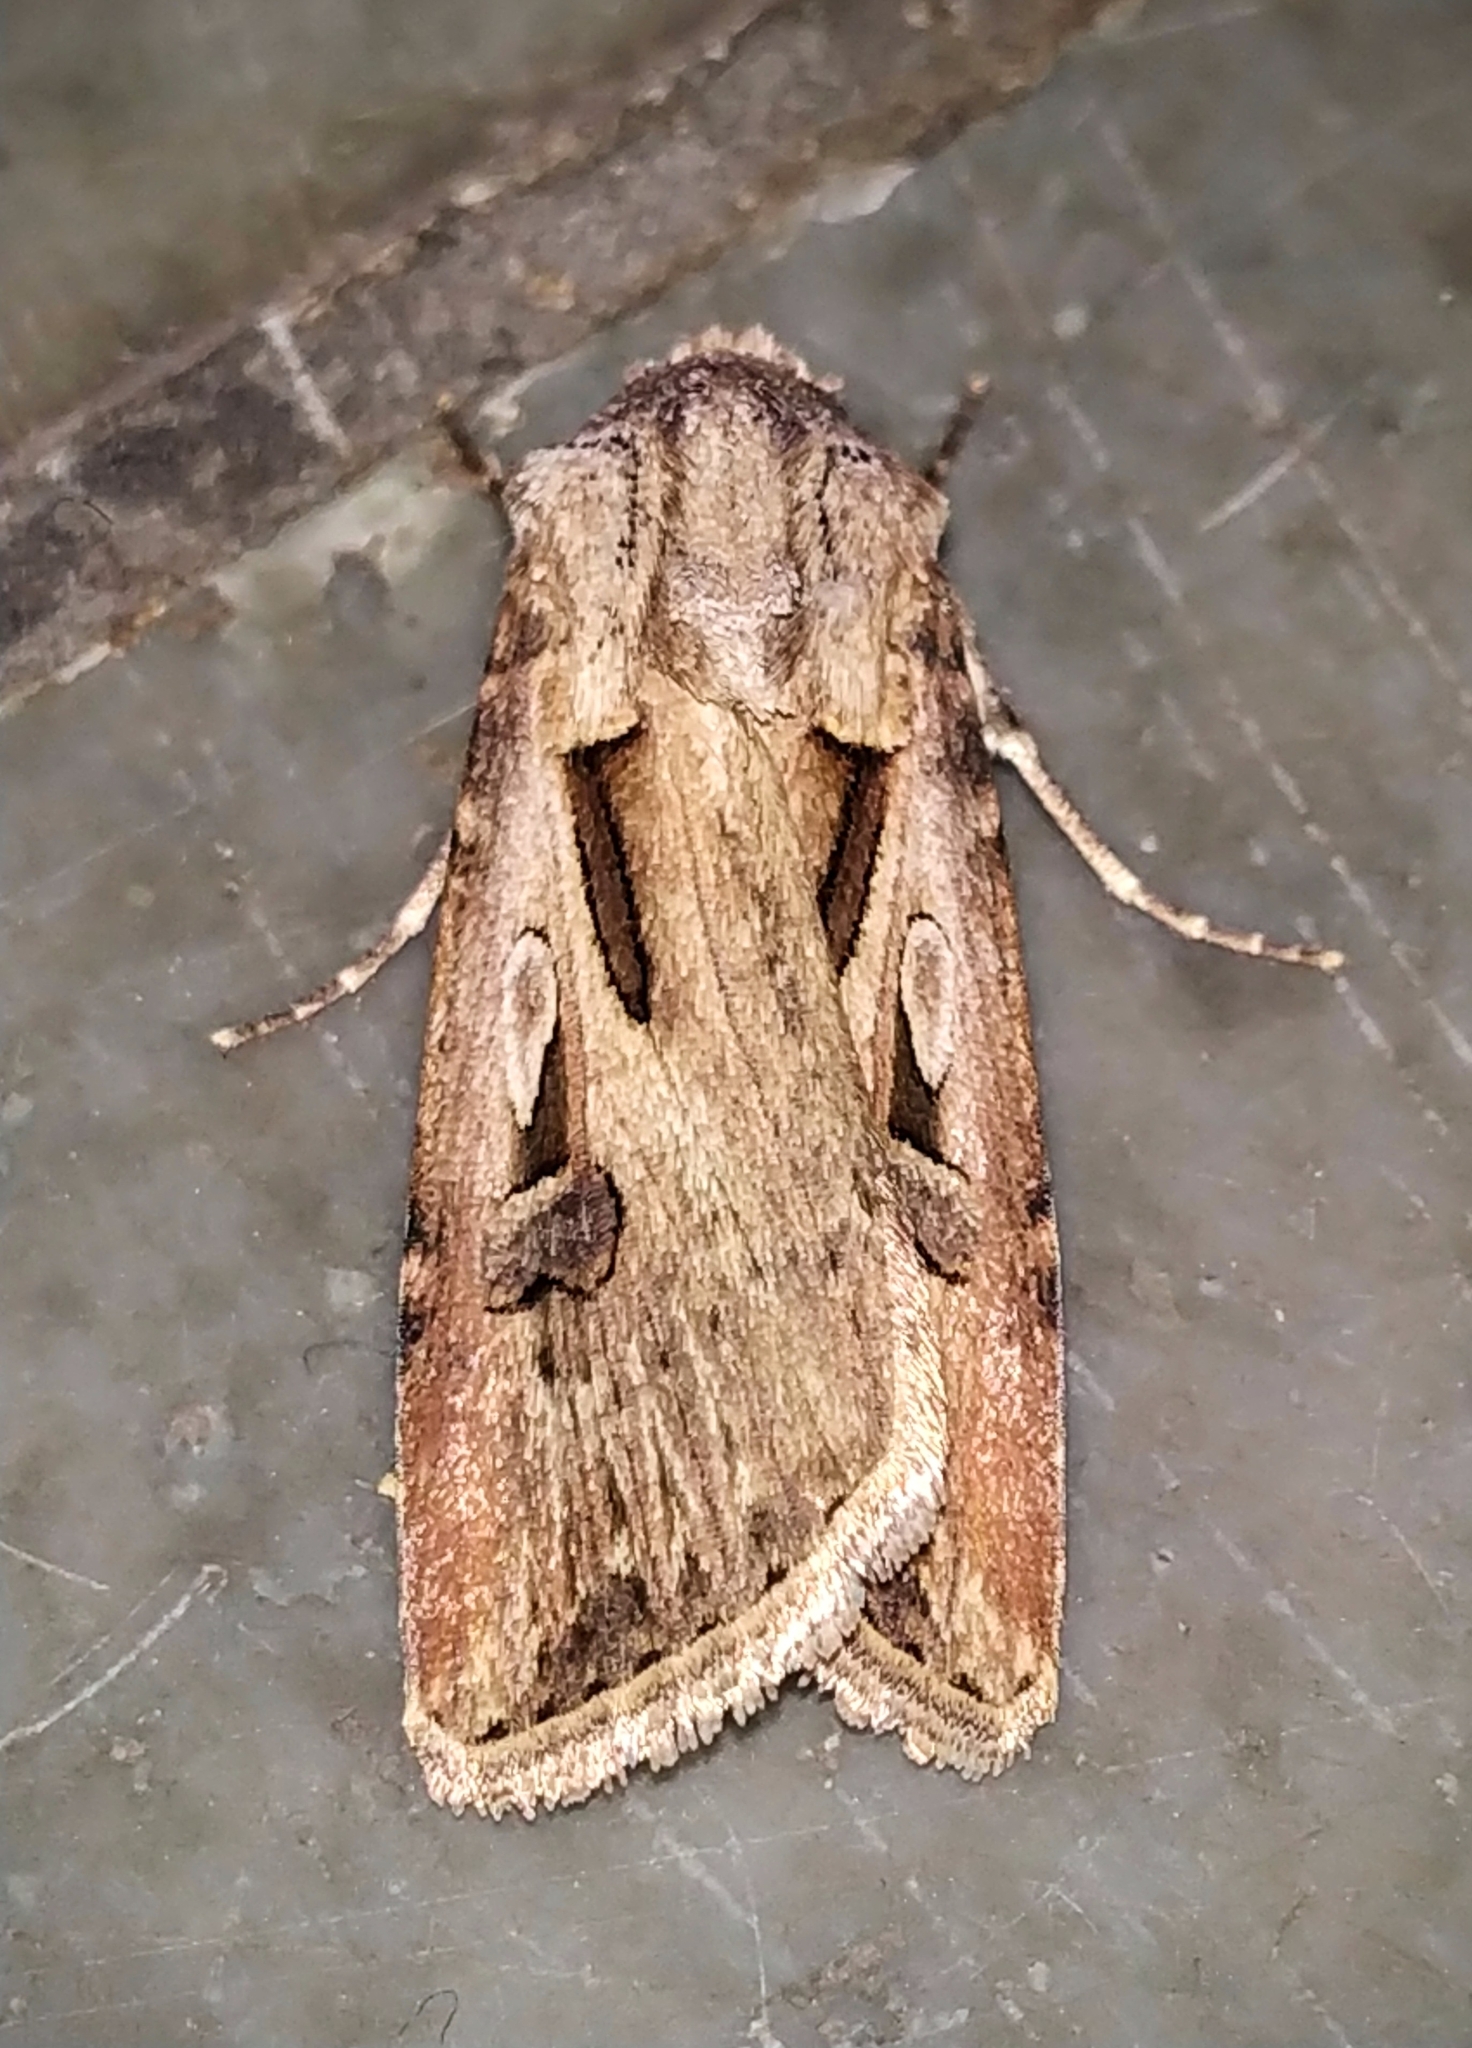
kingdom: Animalia
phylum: Arthropoda
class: Insecta
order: Lepidoptera
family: Noctuidae
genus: Agrotis
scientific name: Agrotis biconica
